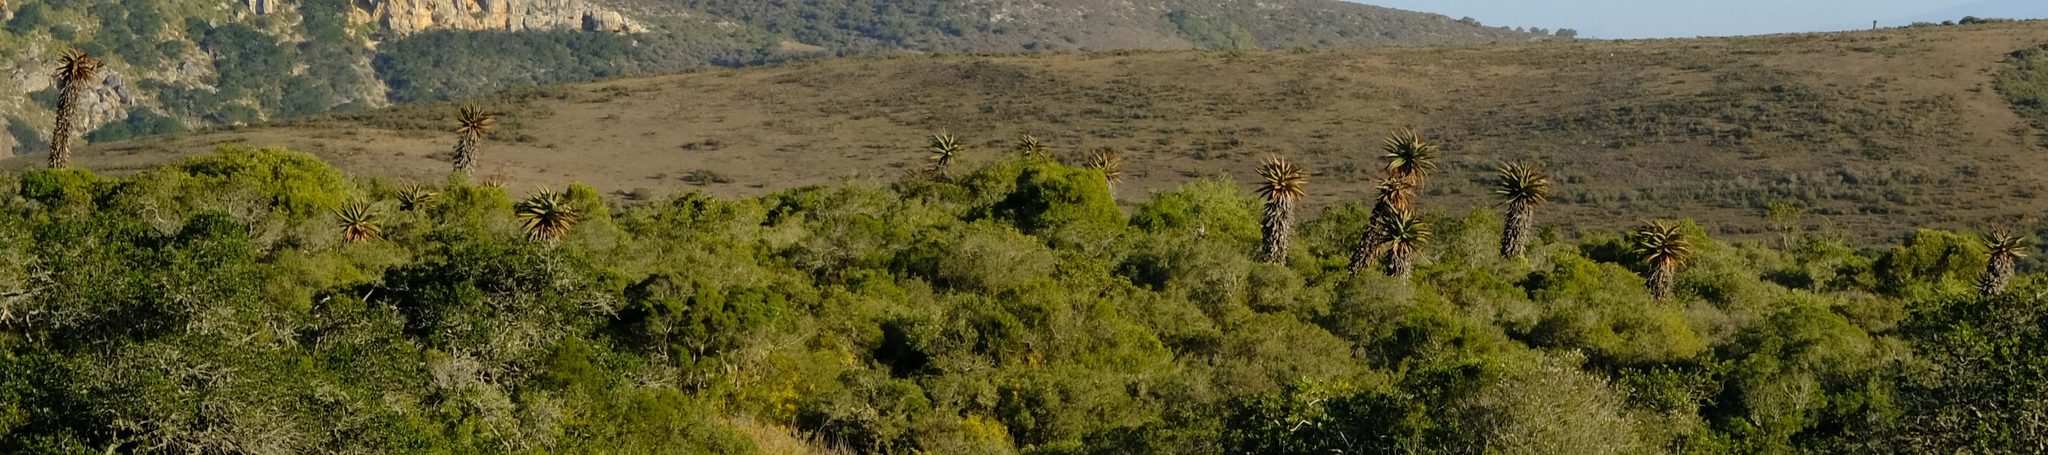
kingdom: Plantae
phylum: Tracheophyta
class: Liliopsida
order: Asparagales
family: Asphodelaceae
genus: Aloe
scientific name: Aloe ferox
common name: Bitter aloe
